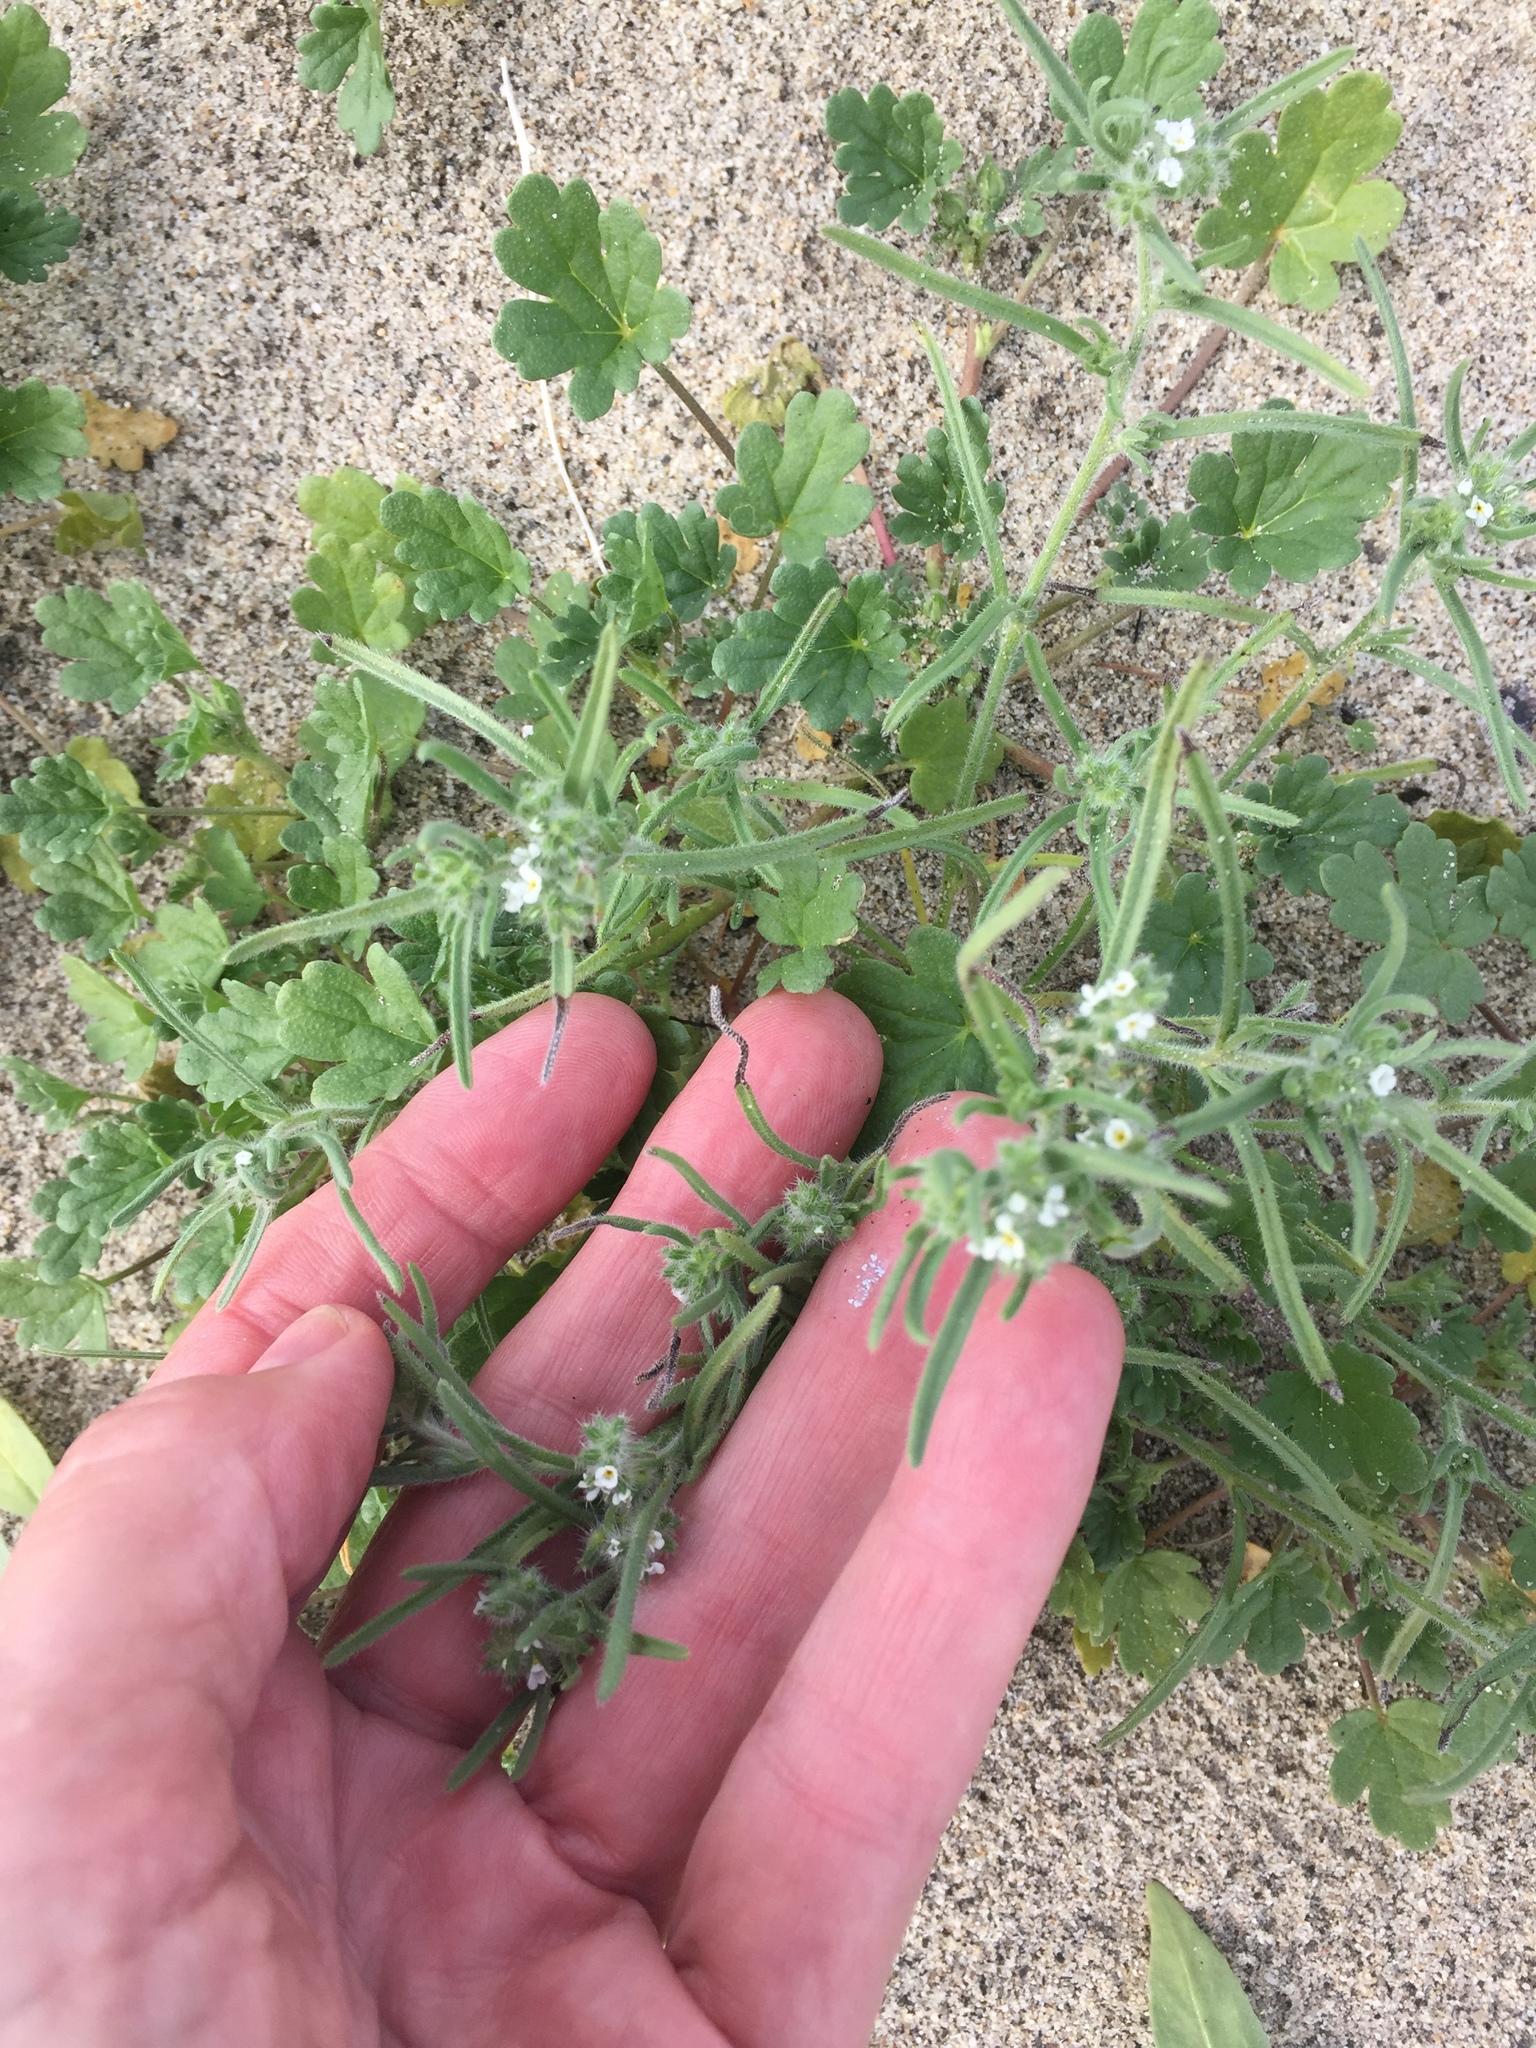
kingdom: Plantae
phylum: Tracheophyta
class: Magnoliopsida
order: Boraginales
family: Boraginaceae
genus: Johnstonella
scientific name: Johnstonella angustifolia
